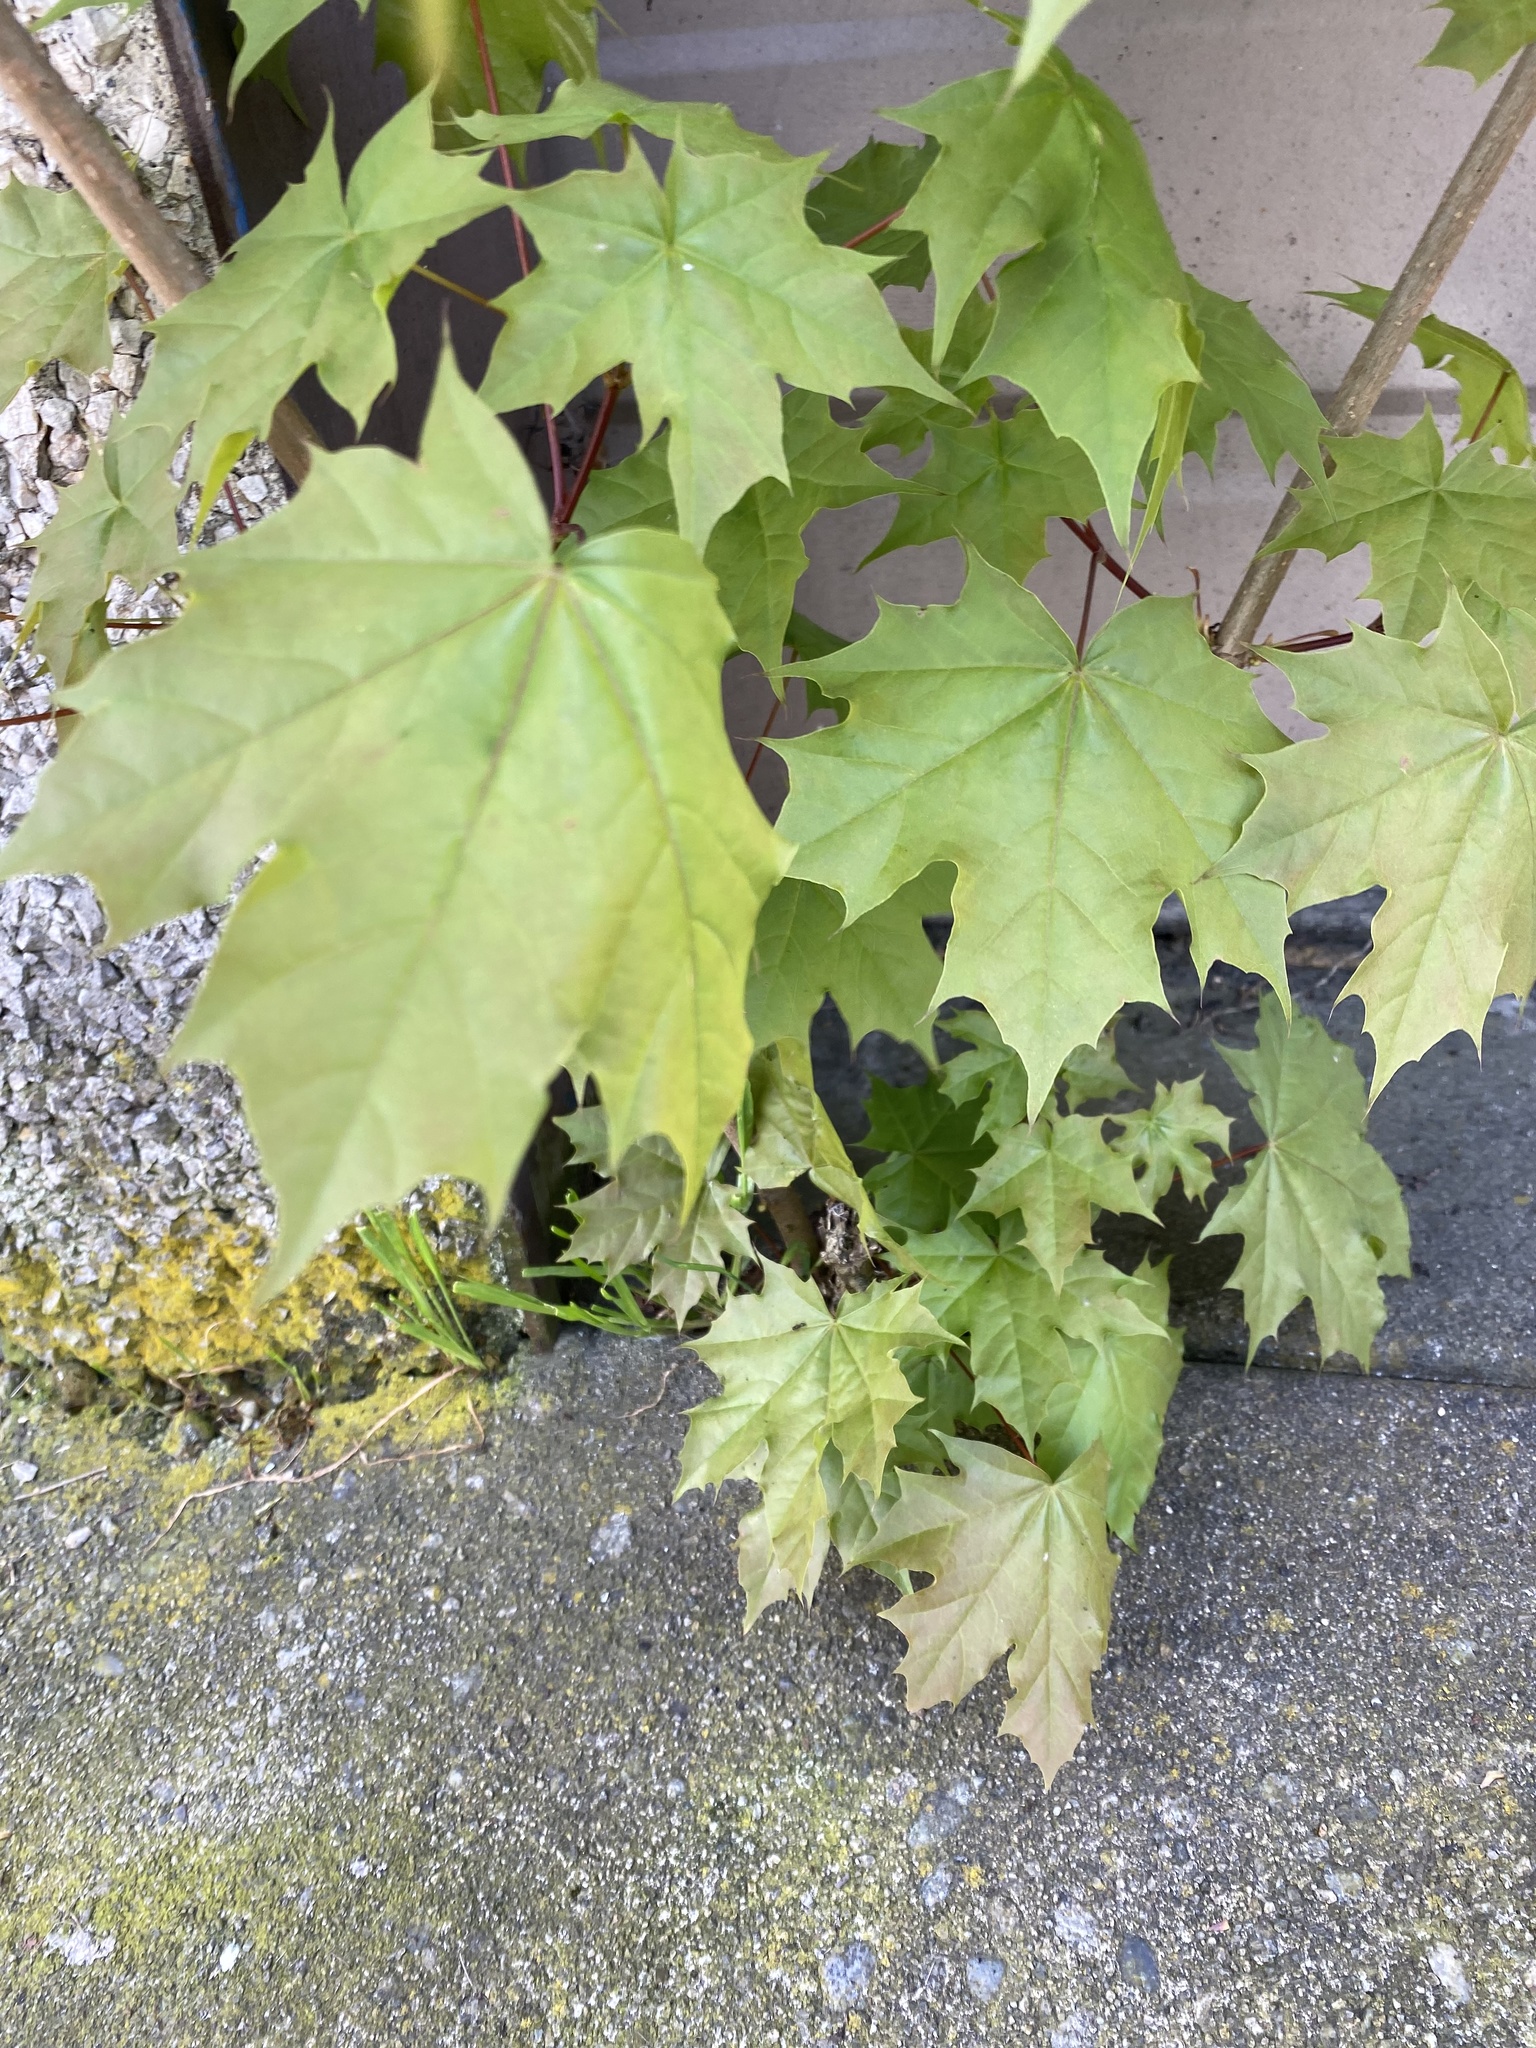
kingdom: Plantae
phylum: Tracheophyta
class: Magnoliopsida
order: Sapindales
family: Sapindaceae
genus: Acer
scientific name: Acer platanoides
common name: Norway maple
